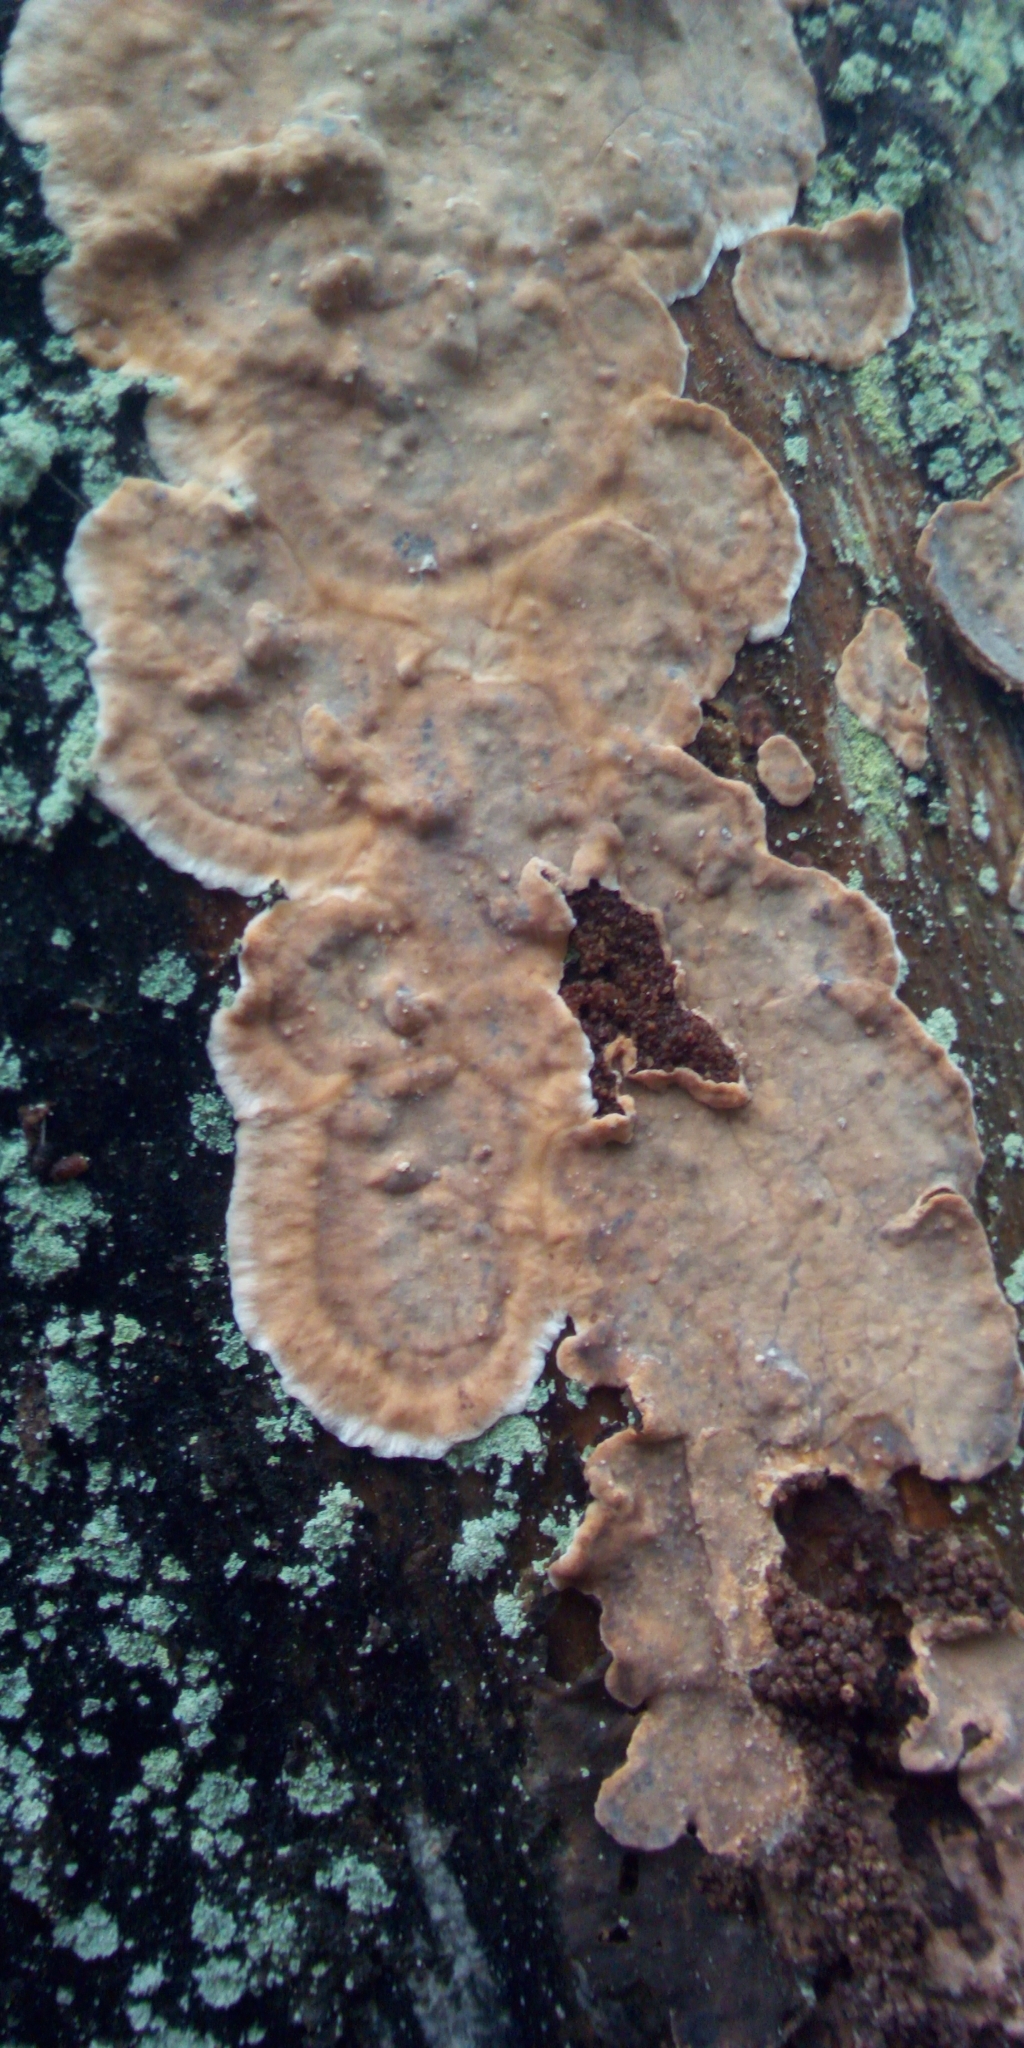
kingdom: Fungi
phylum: Basidiomycota
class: Agaricomycetes
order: Russulales
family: Stereaceae
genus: Stereum
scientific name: Stereum
